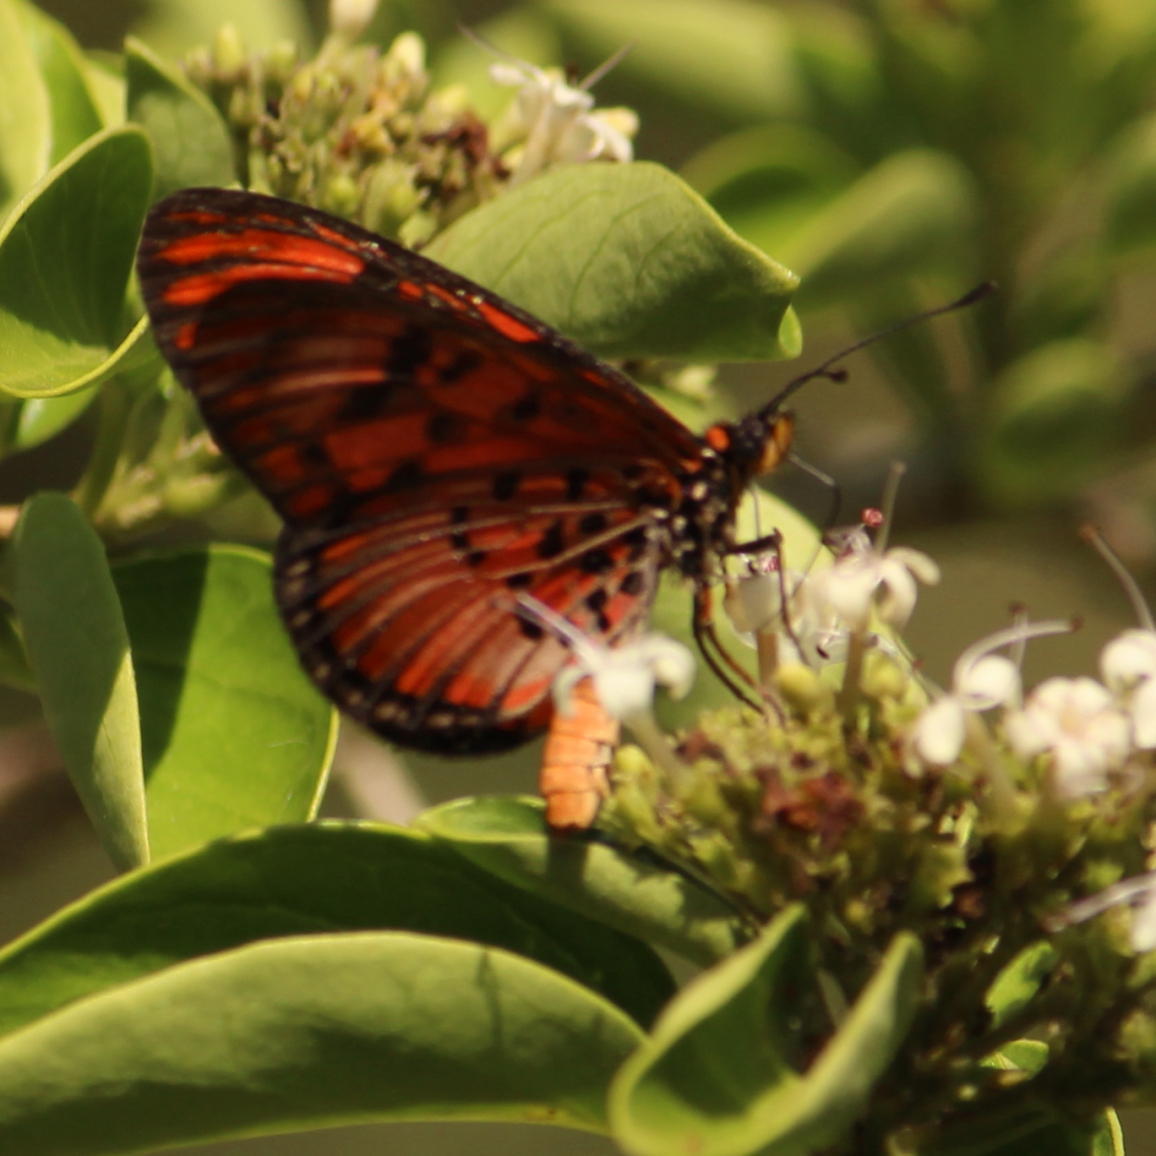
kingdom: Animalia
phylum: Arthropoda
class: Insecta
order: Lepidoptera
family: Nymphalidae
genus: Rubraea
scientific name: Rubraea
